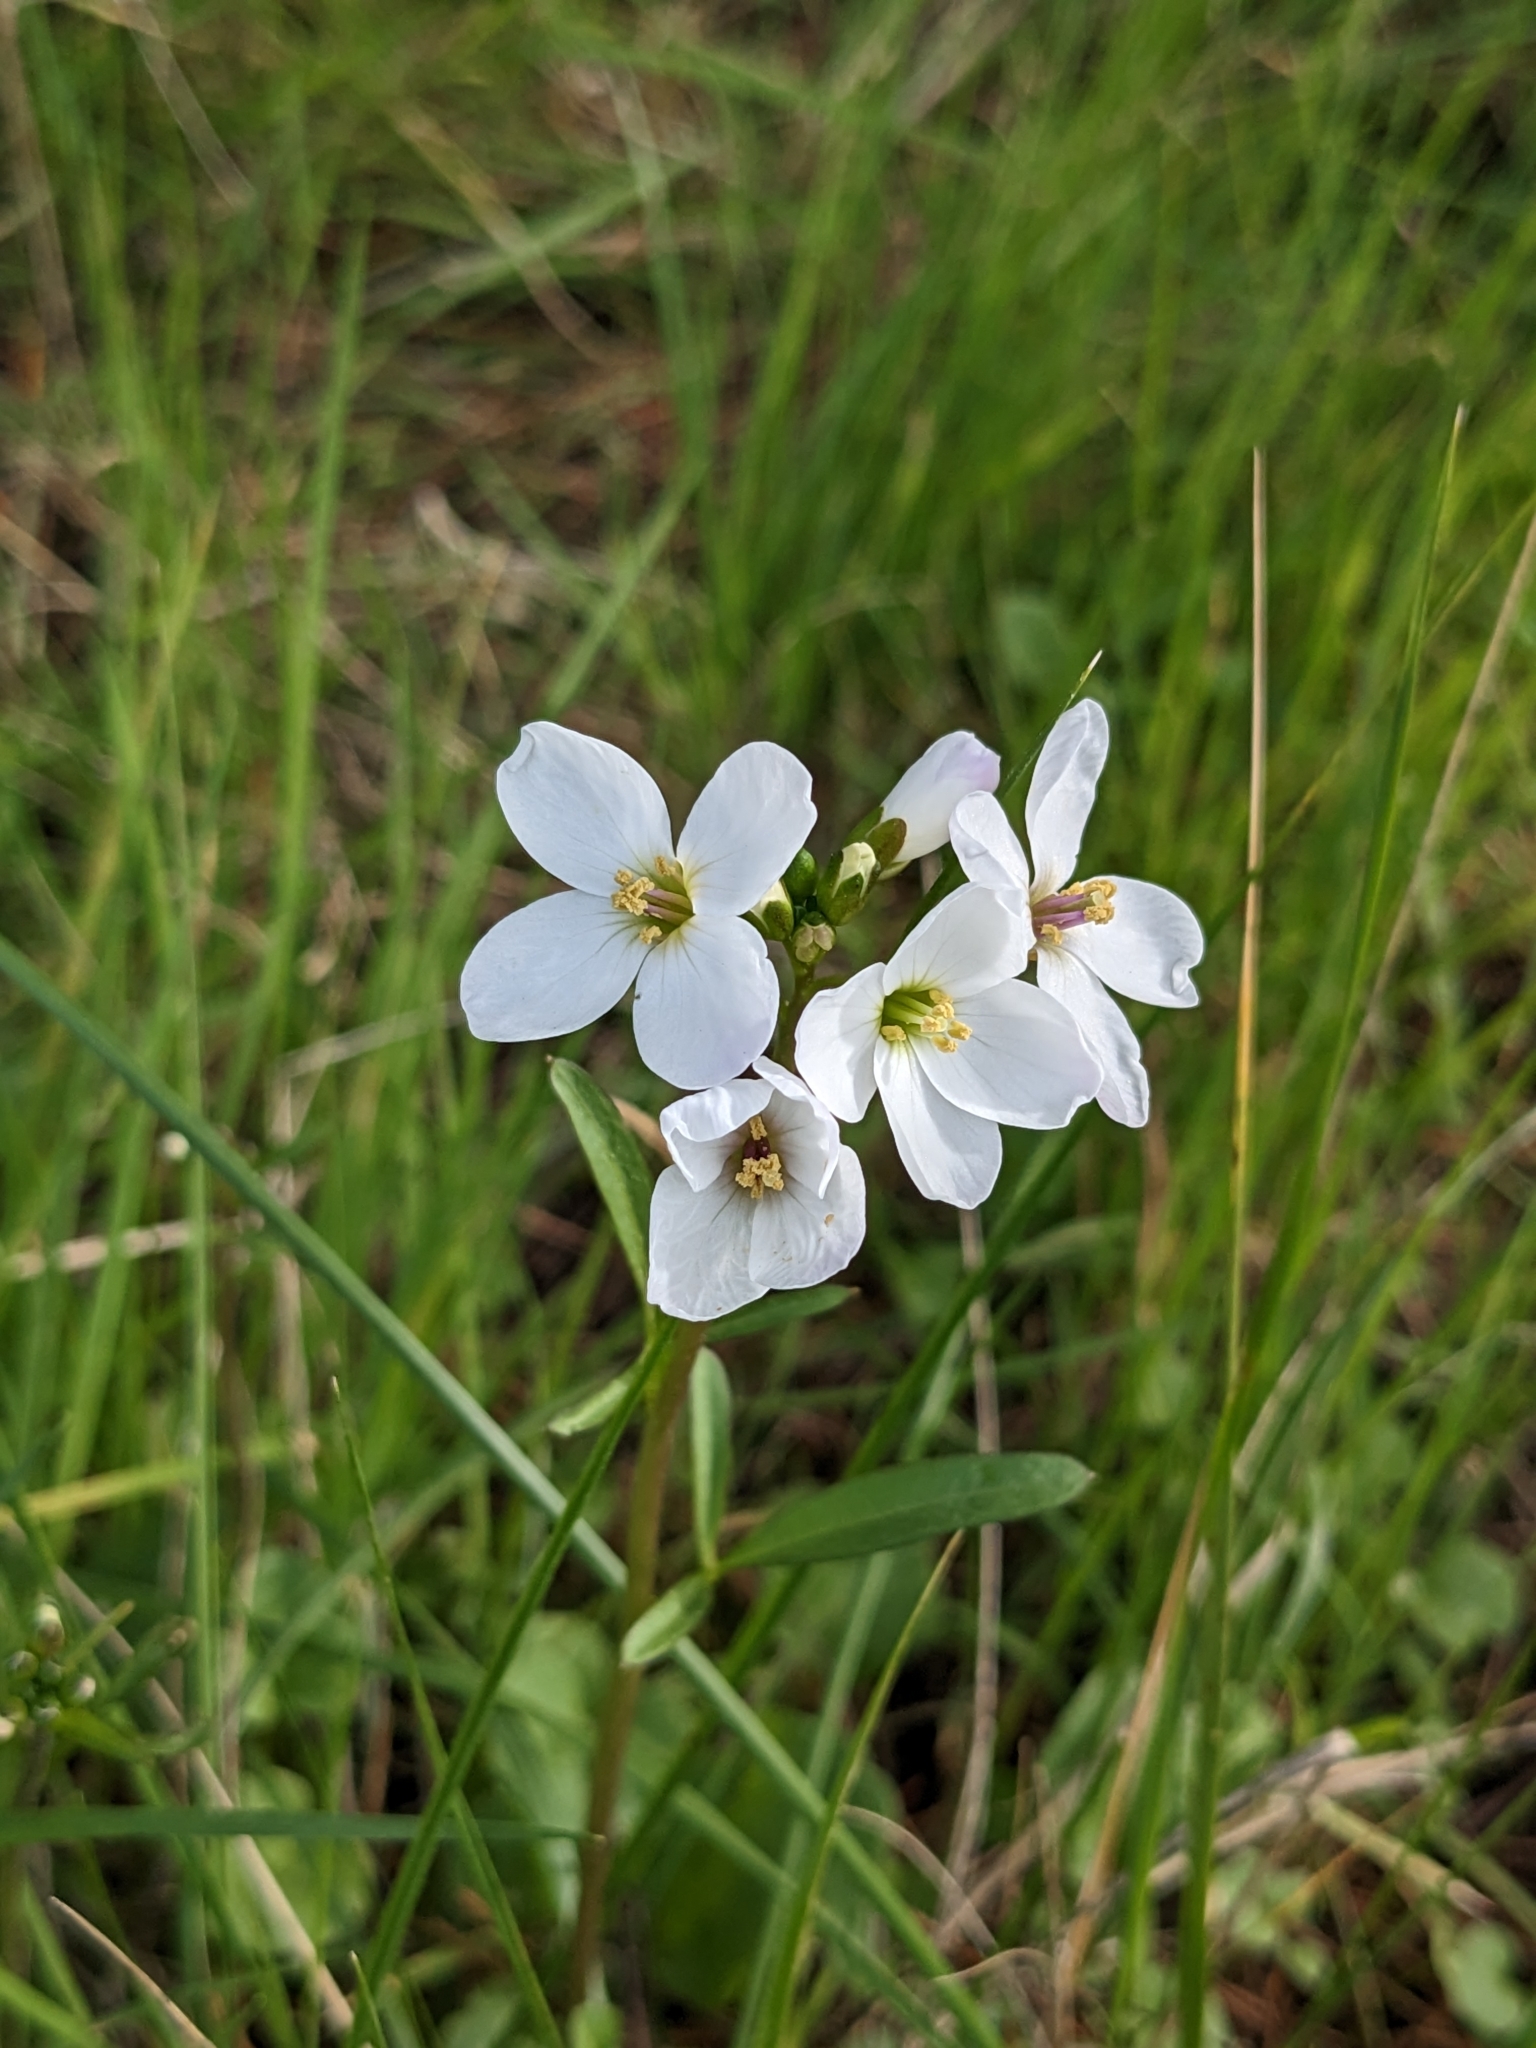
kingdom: Plantae
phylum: Tracheophyta
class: Magnoliopsida
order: Brassicales
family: Brassicaceae
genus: Cardamine
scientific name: Cardamine californica
